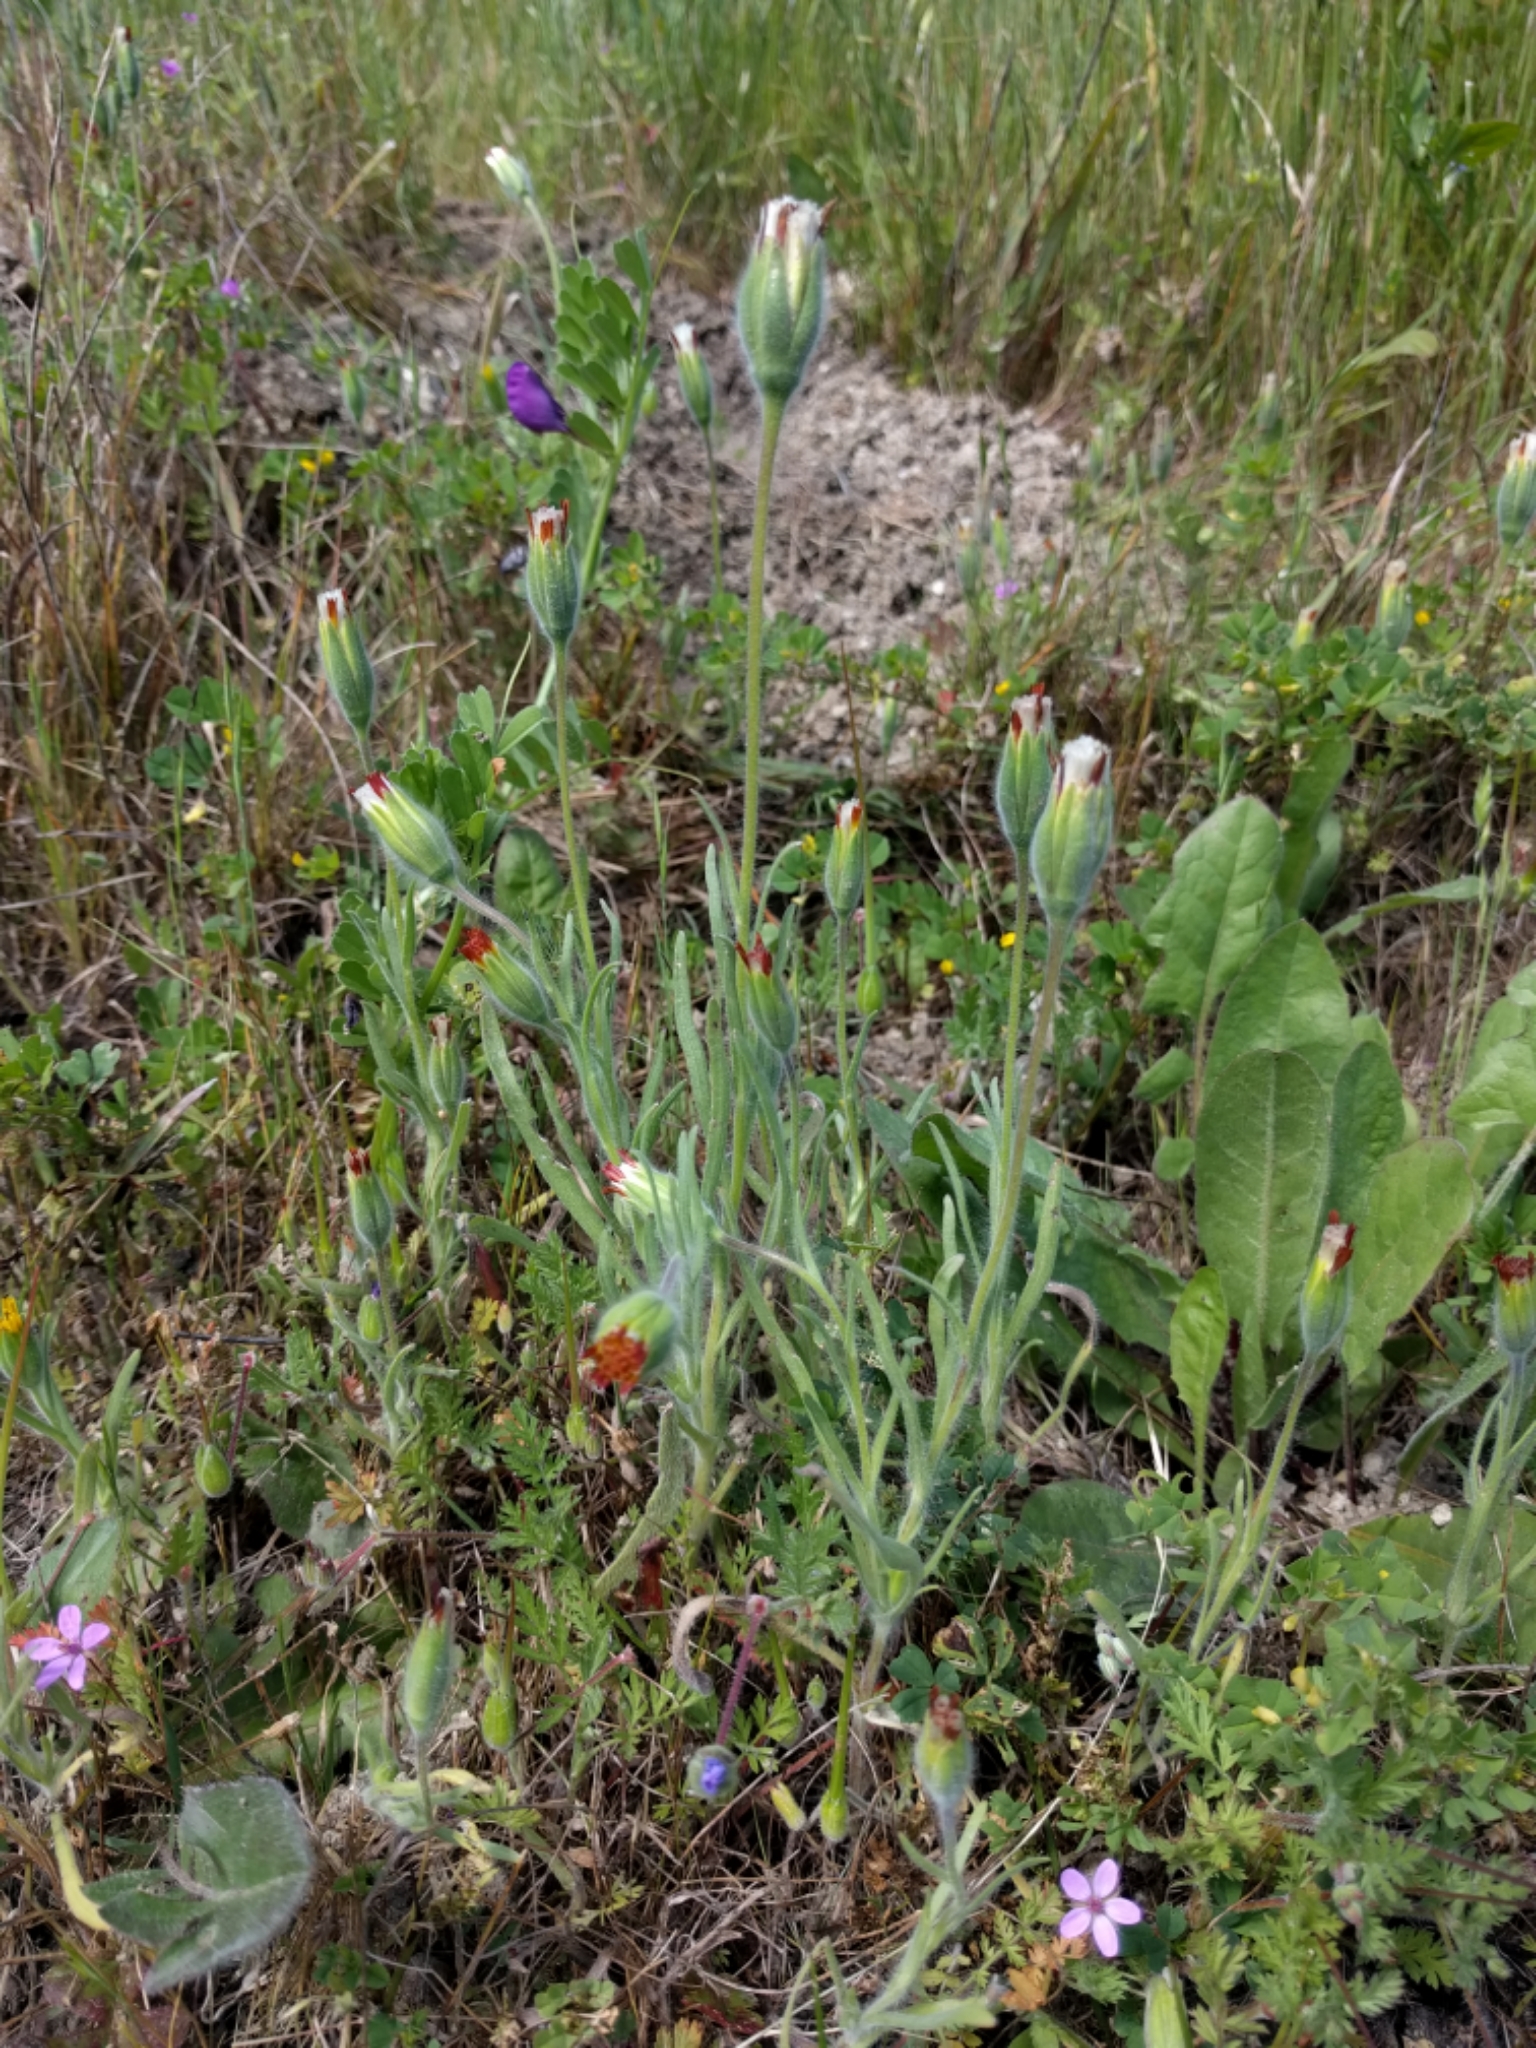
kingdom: Plantae
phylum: Tracheophyta
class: Magnoliopsida
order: Asterales
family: Asteraceae
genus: Achyrachaena
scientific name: Achyrachaena mollis
